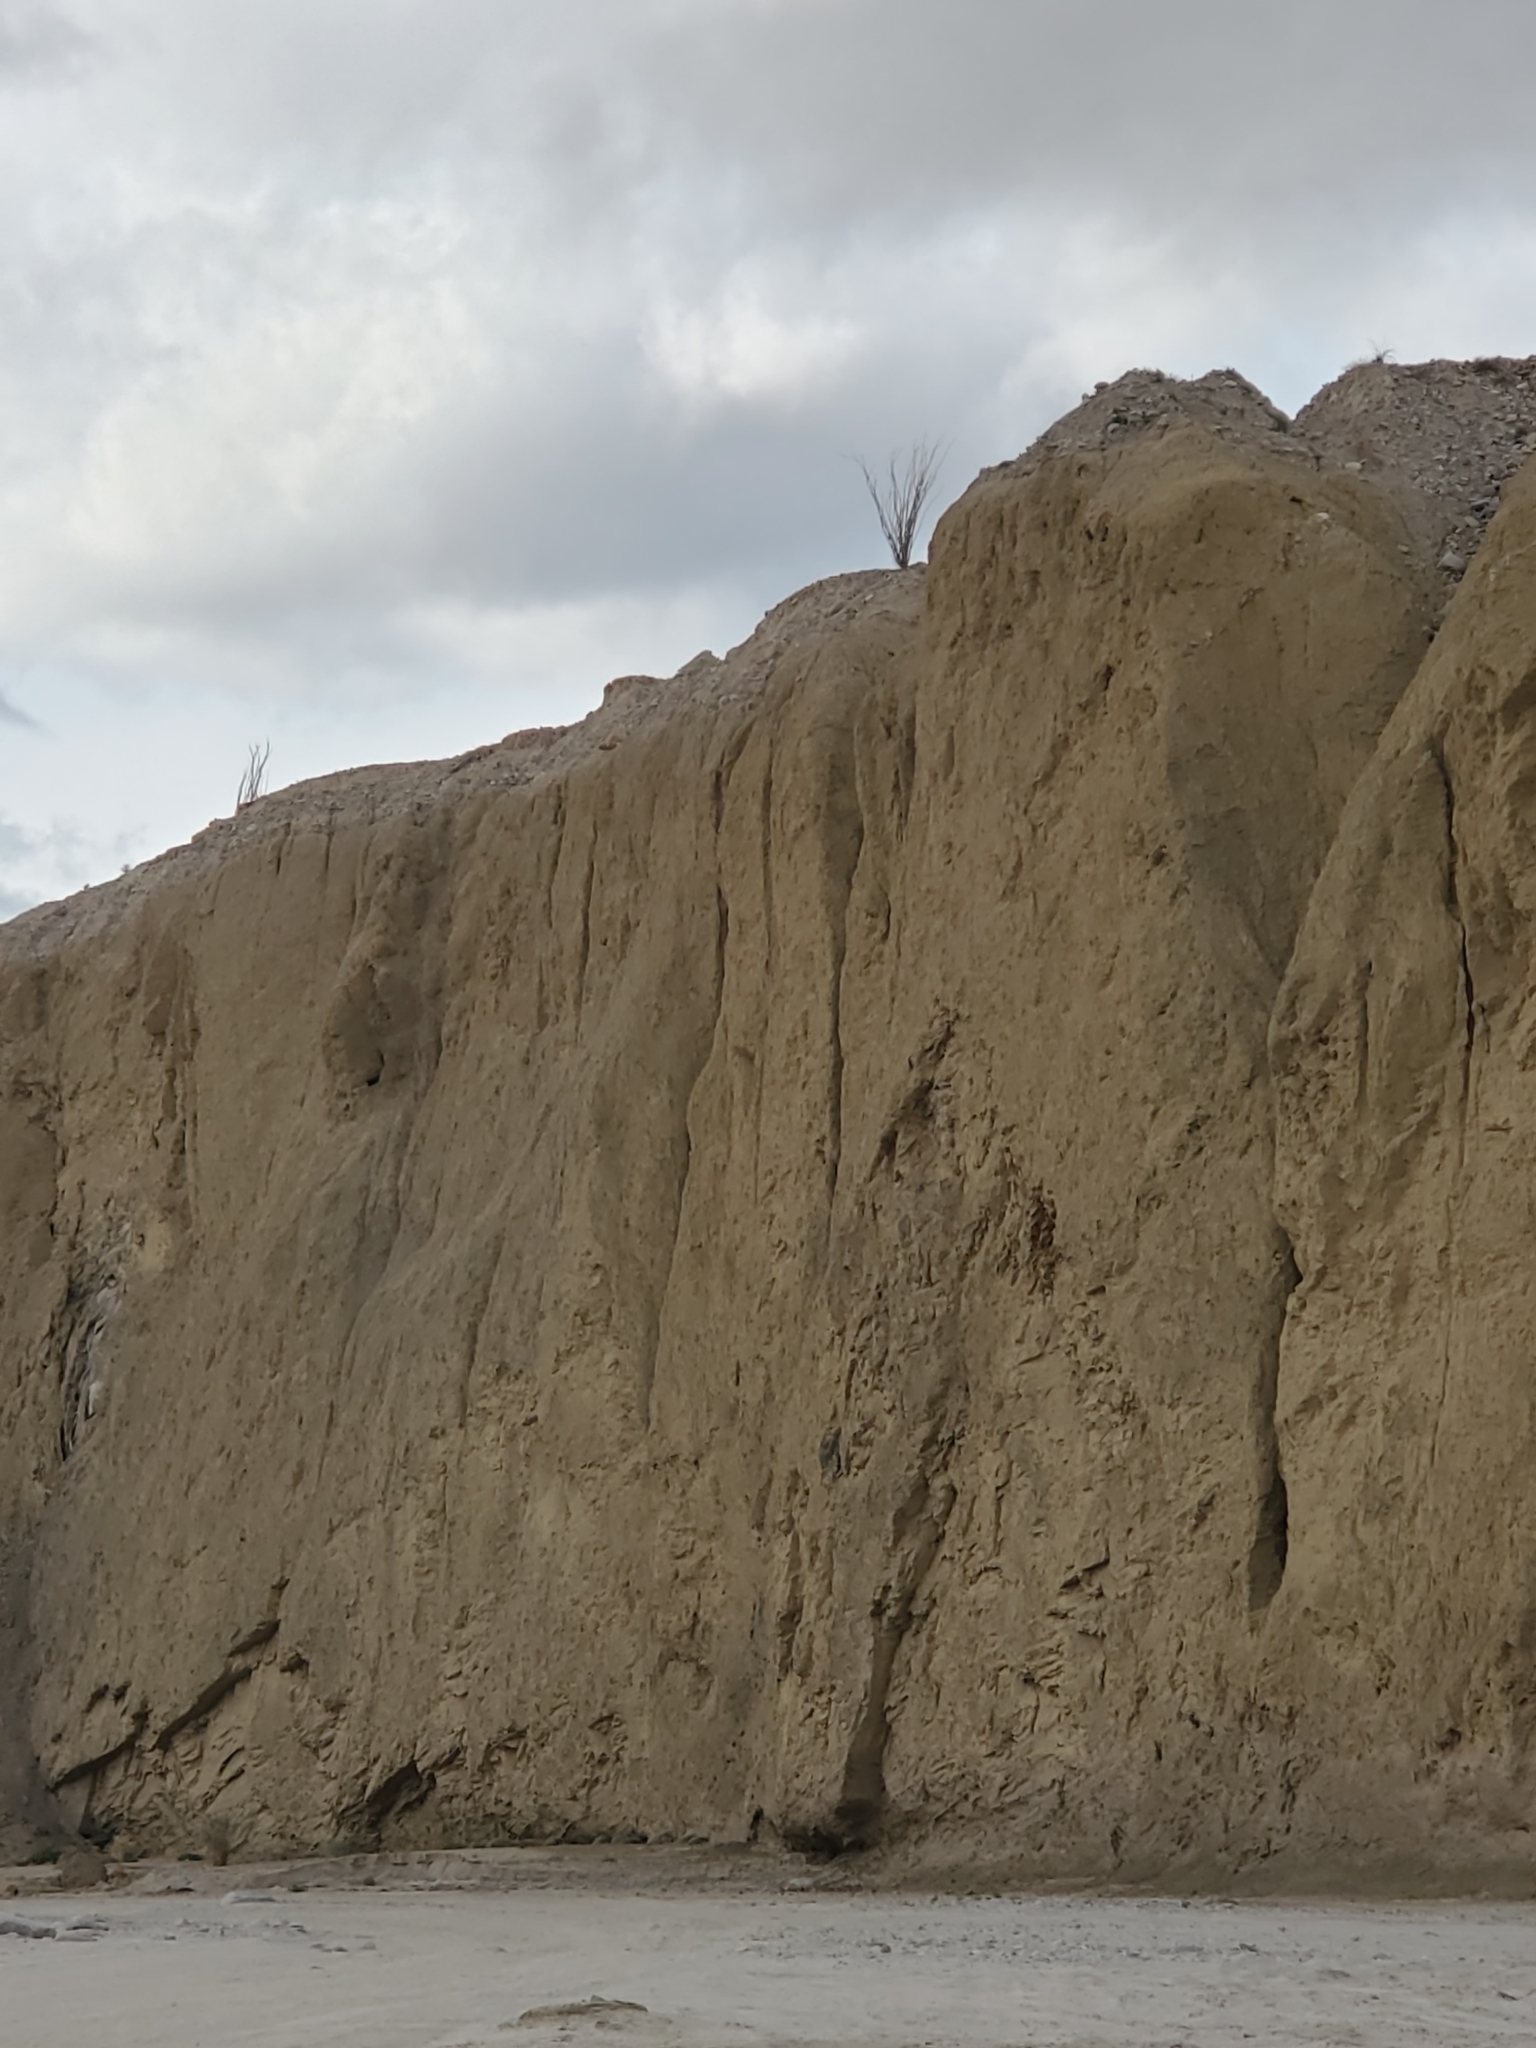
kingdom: Plantae
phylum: Tracheophyta
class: Magnoliopsida
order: Ericales
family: Fouquieriaceae
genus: Fouquieria
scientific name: Fouquieria splendens
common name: Vine-cactus
